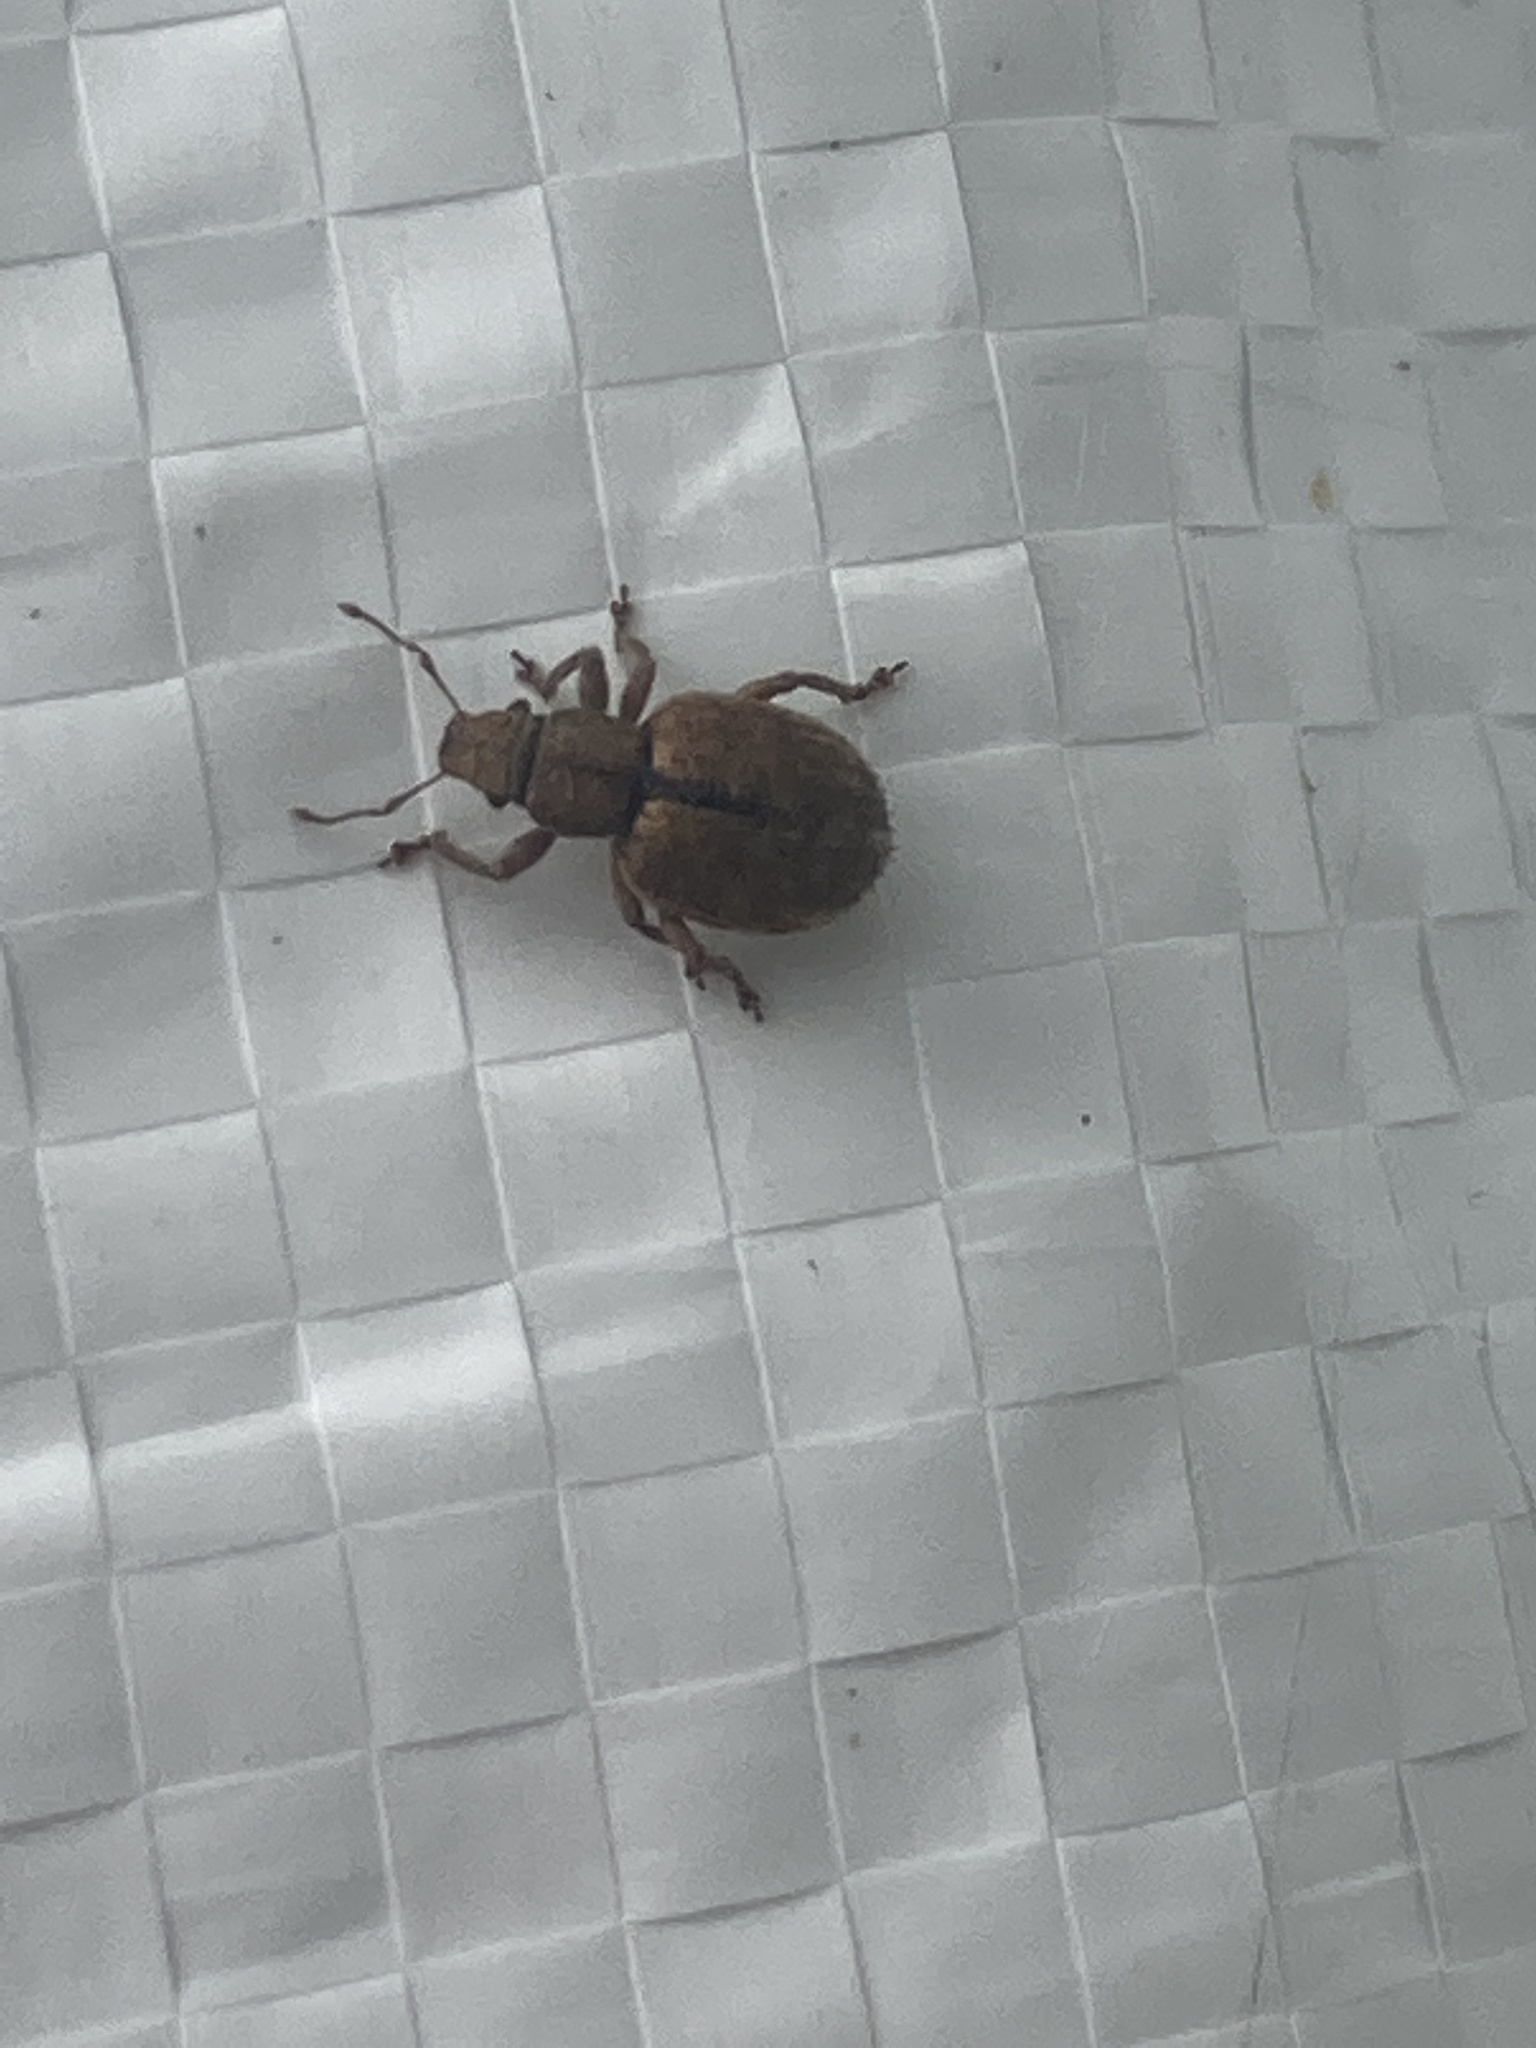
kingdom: Animalia
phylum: Arthropoda
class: Insecta
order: Coleoptera
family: Curculionidae
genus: Strophosoma
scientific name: Strophosoma melanogrammum
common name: Weevil
